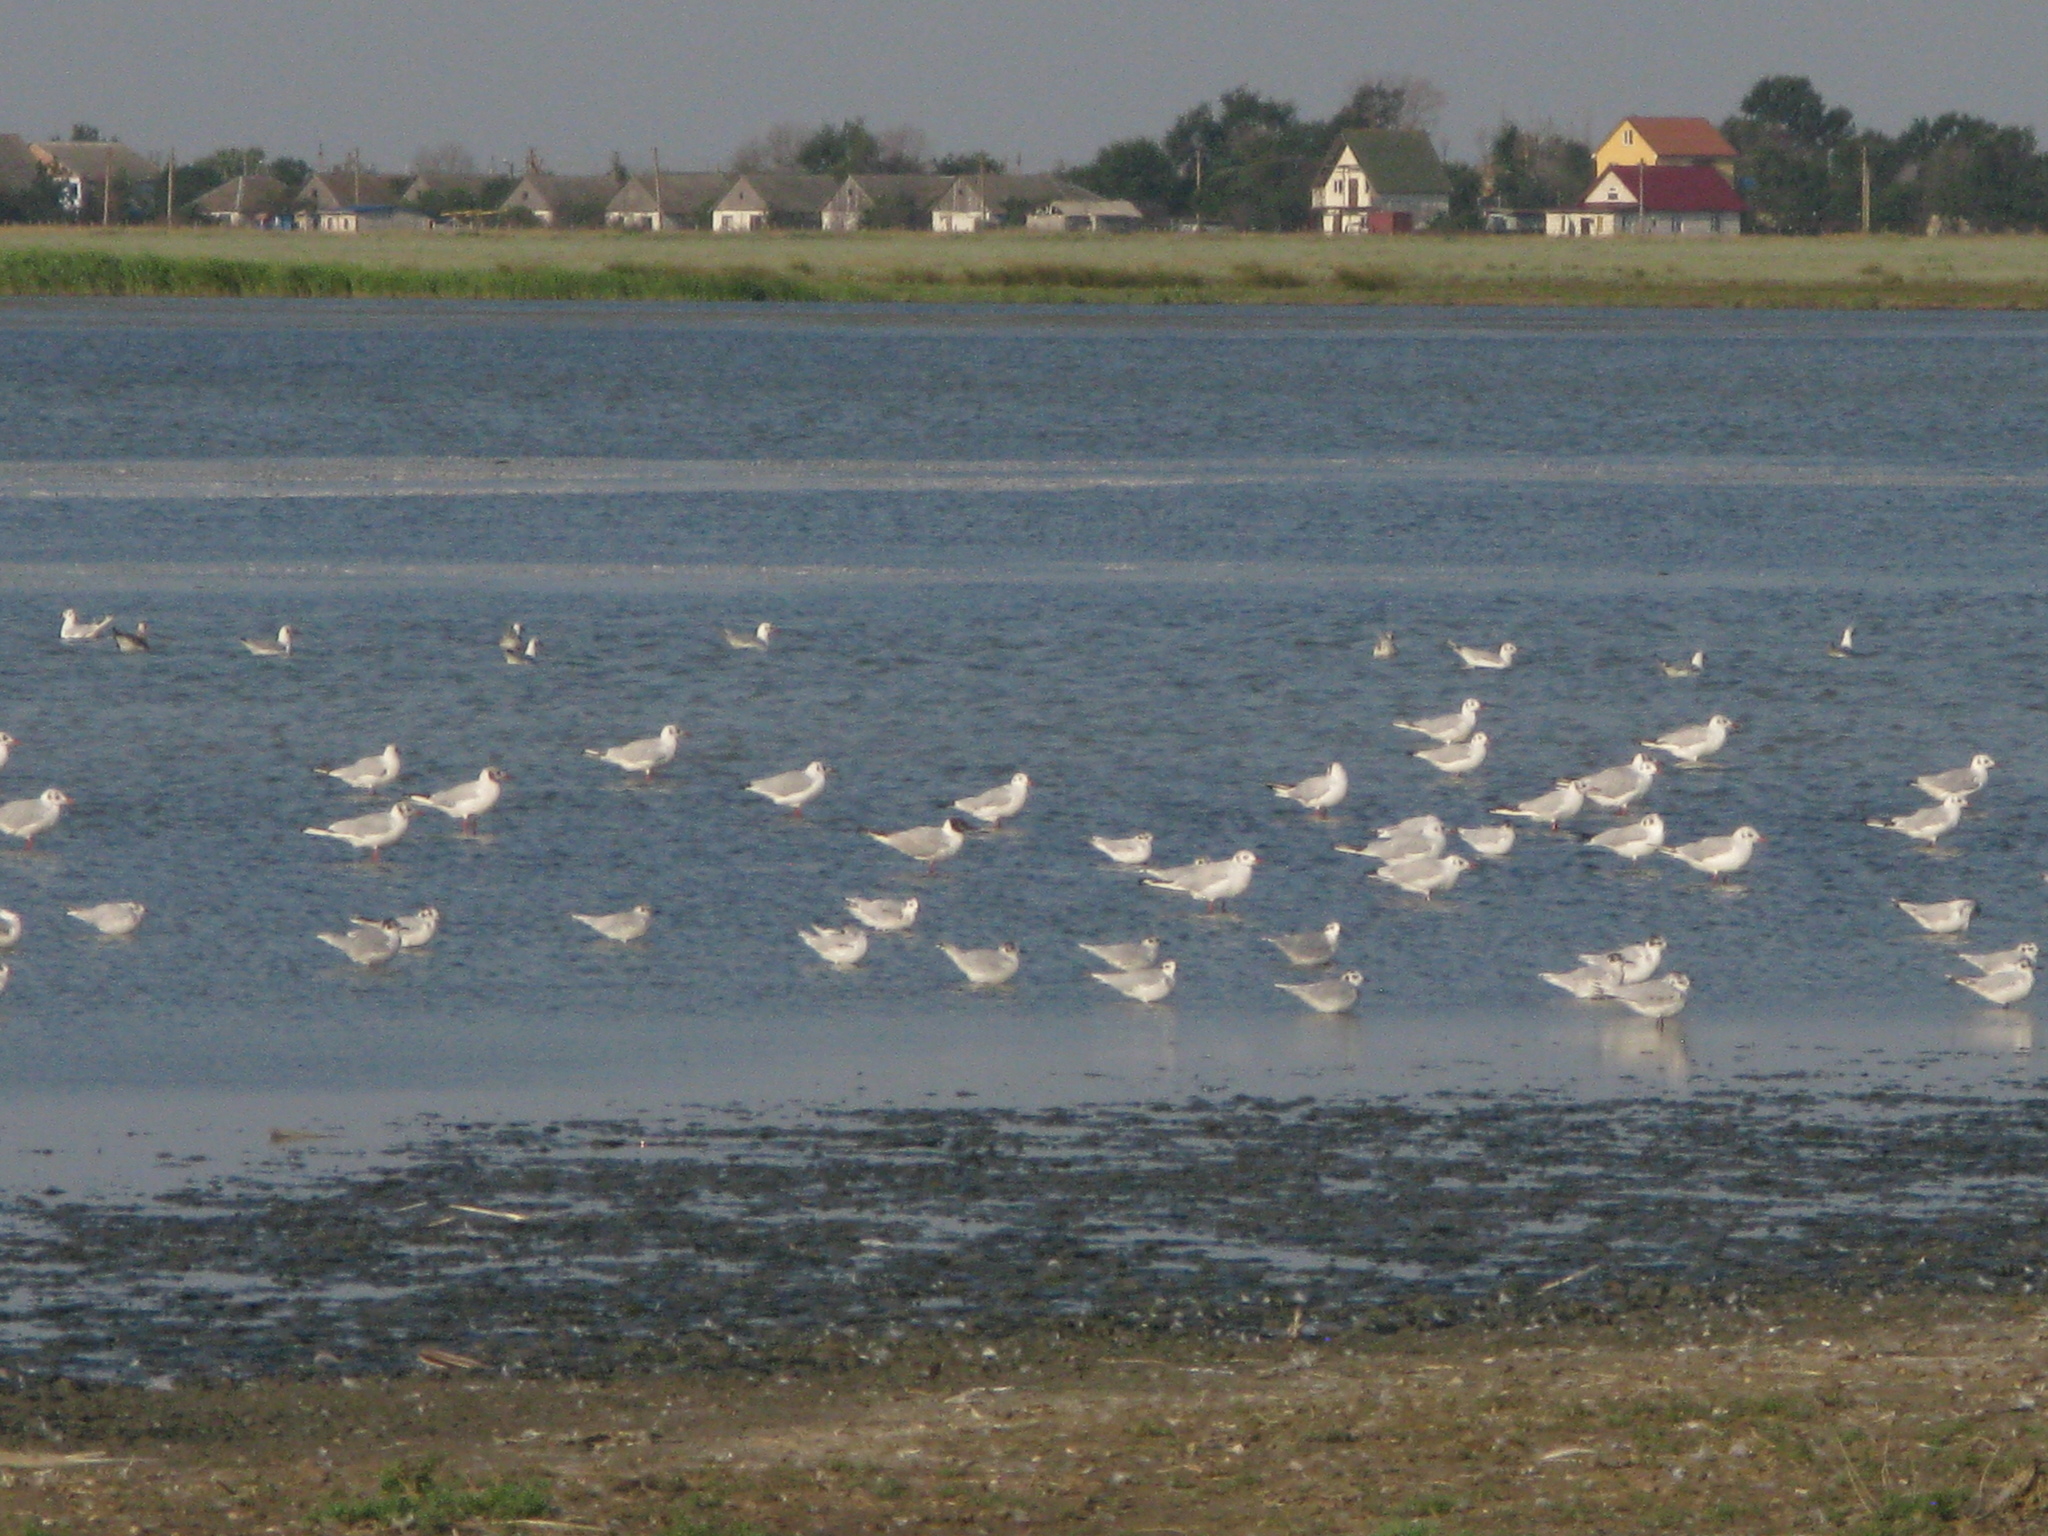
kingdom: Animalia
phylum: Chordata
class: Aves
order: Charadriiformes
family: Laridae
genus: Hydrocoloeus
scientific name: Hydrocoloeus minutus
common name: Little gull
